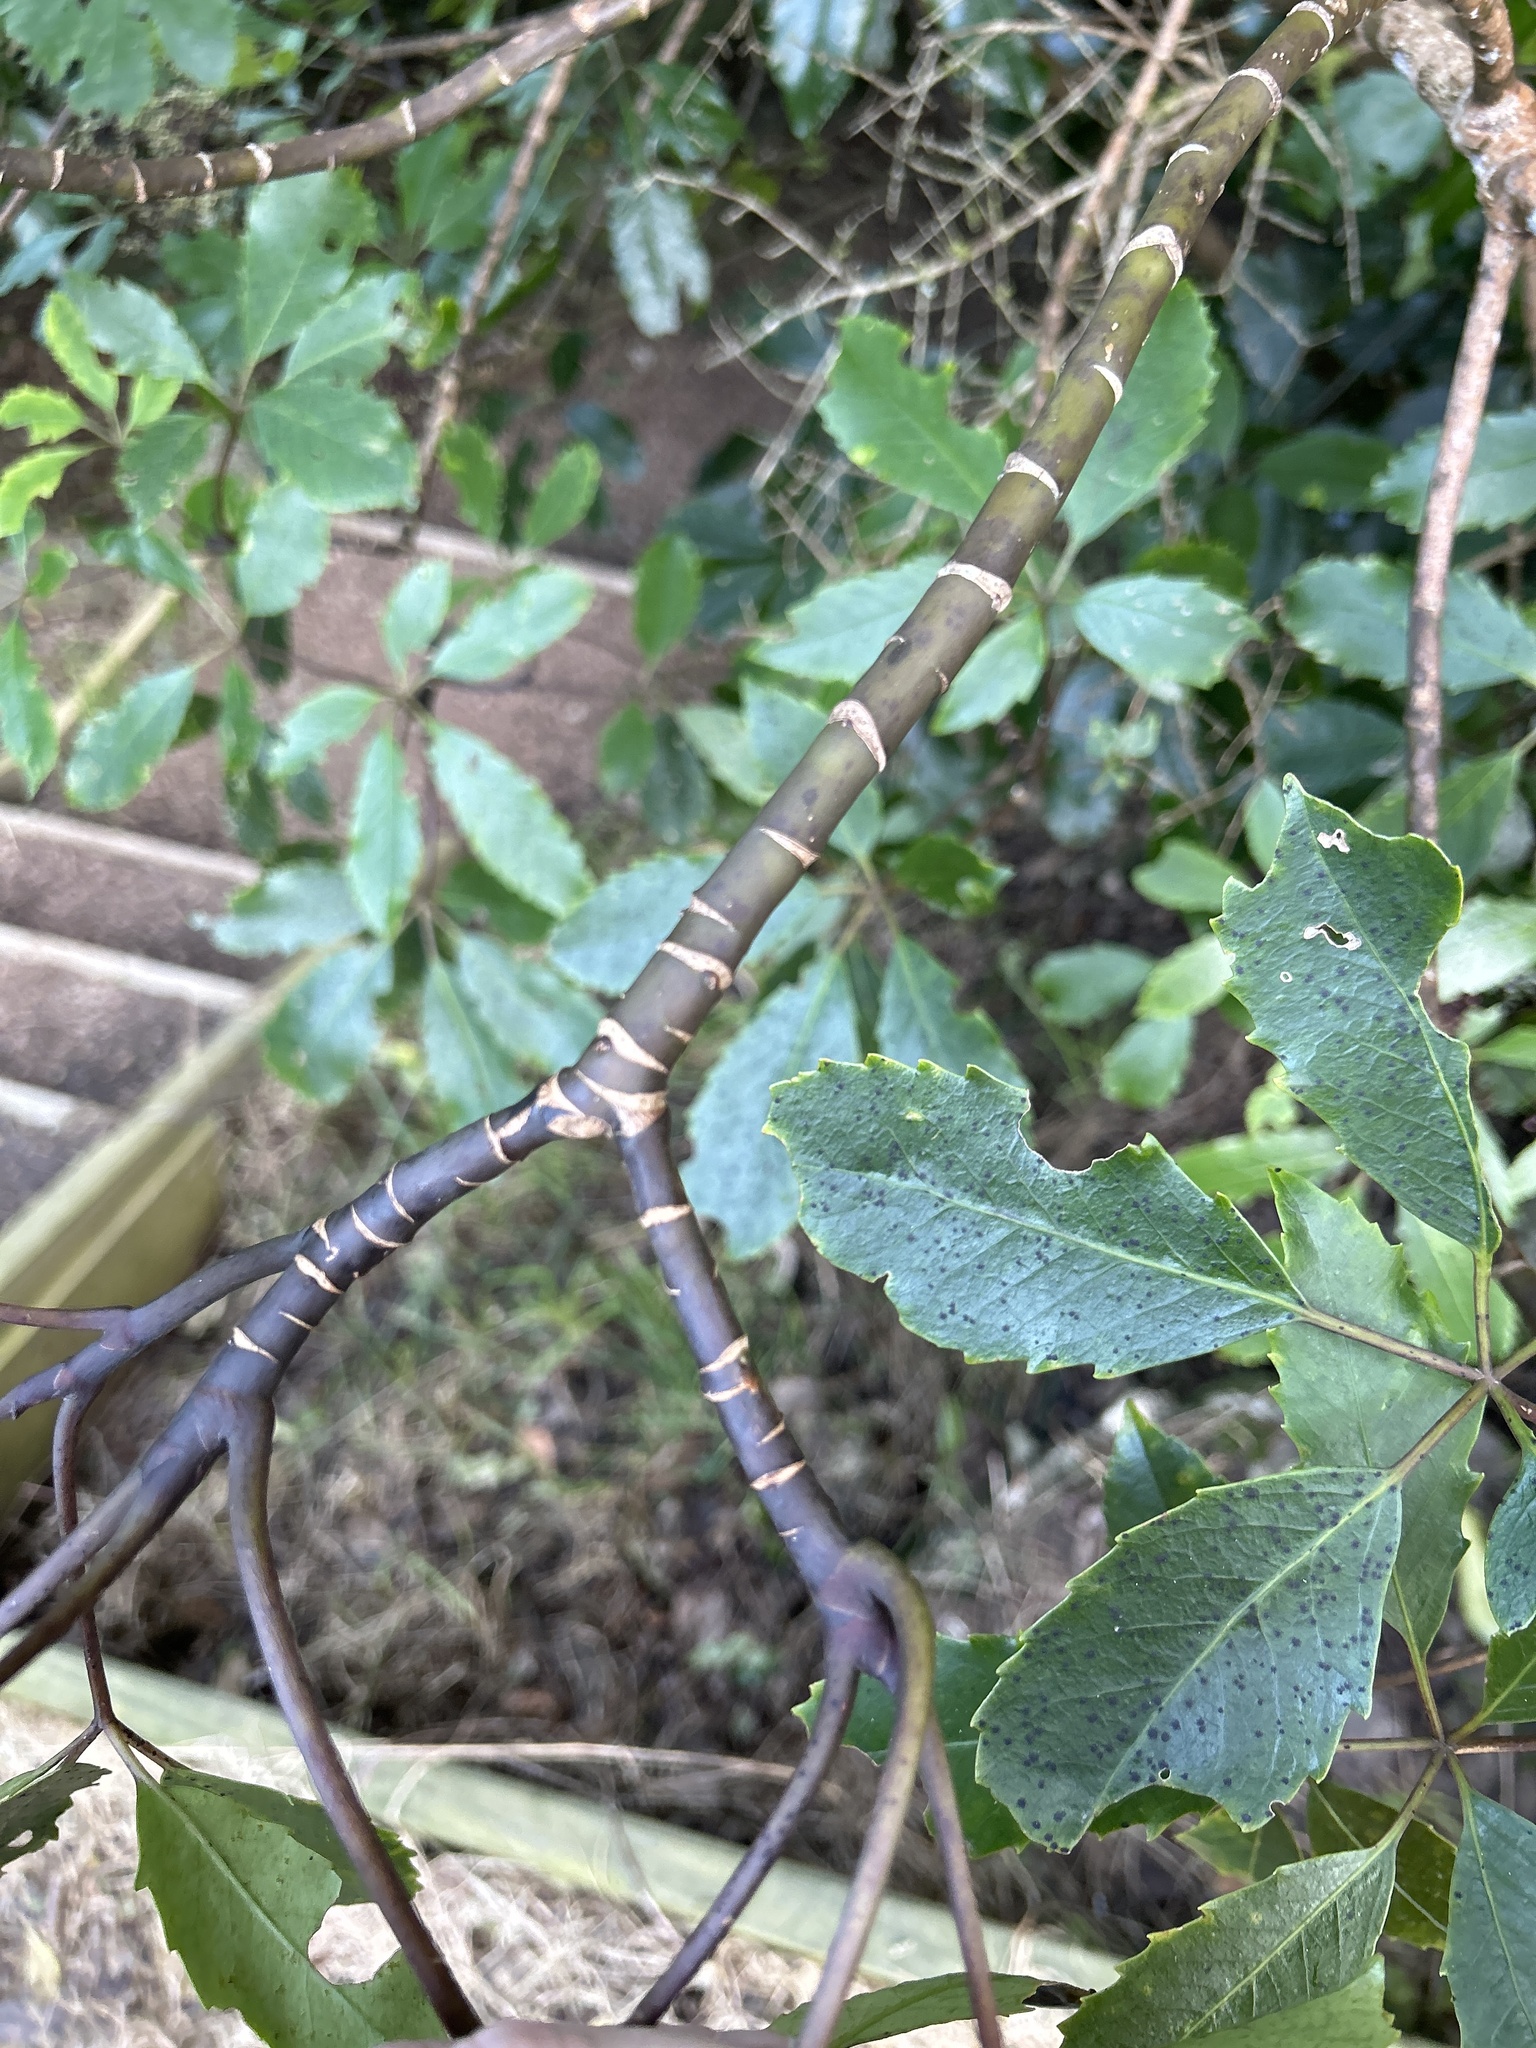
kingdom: Plantae
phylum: Tracheophyta
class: Magnoliopsida
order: Apiales
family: Araliaceae
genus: Neopanax
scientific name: Neopanax arboreus
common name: Five-fingers
